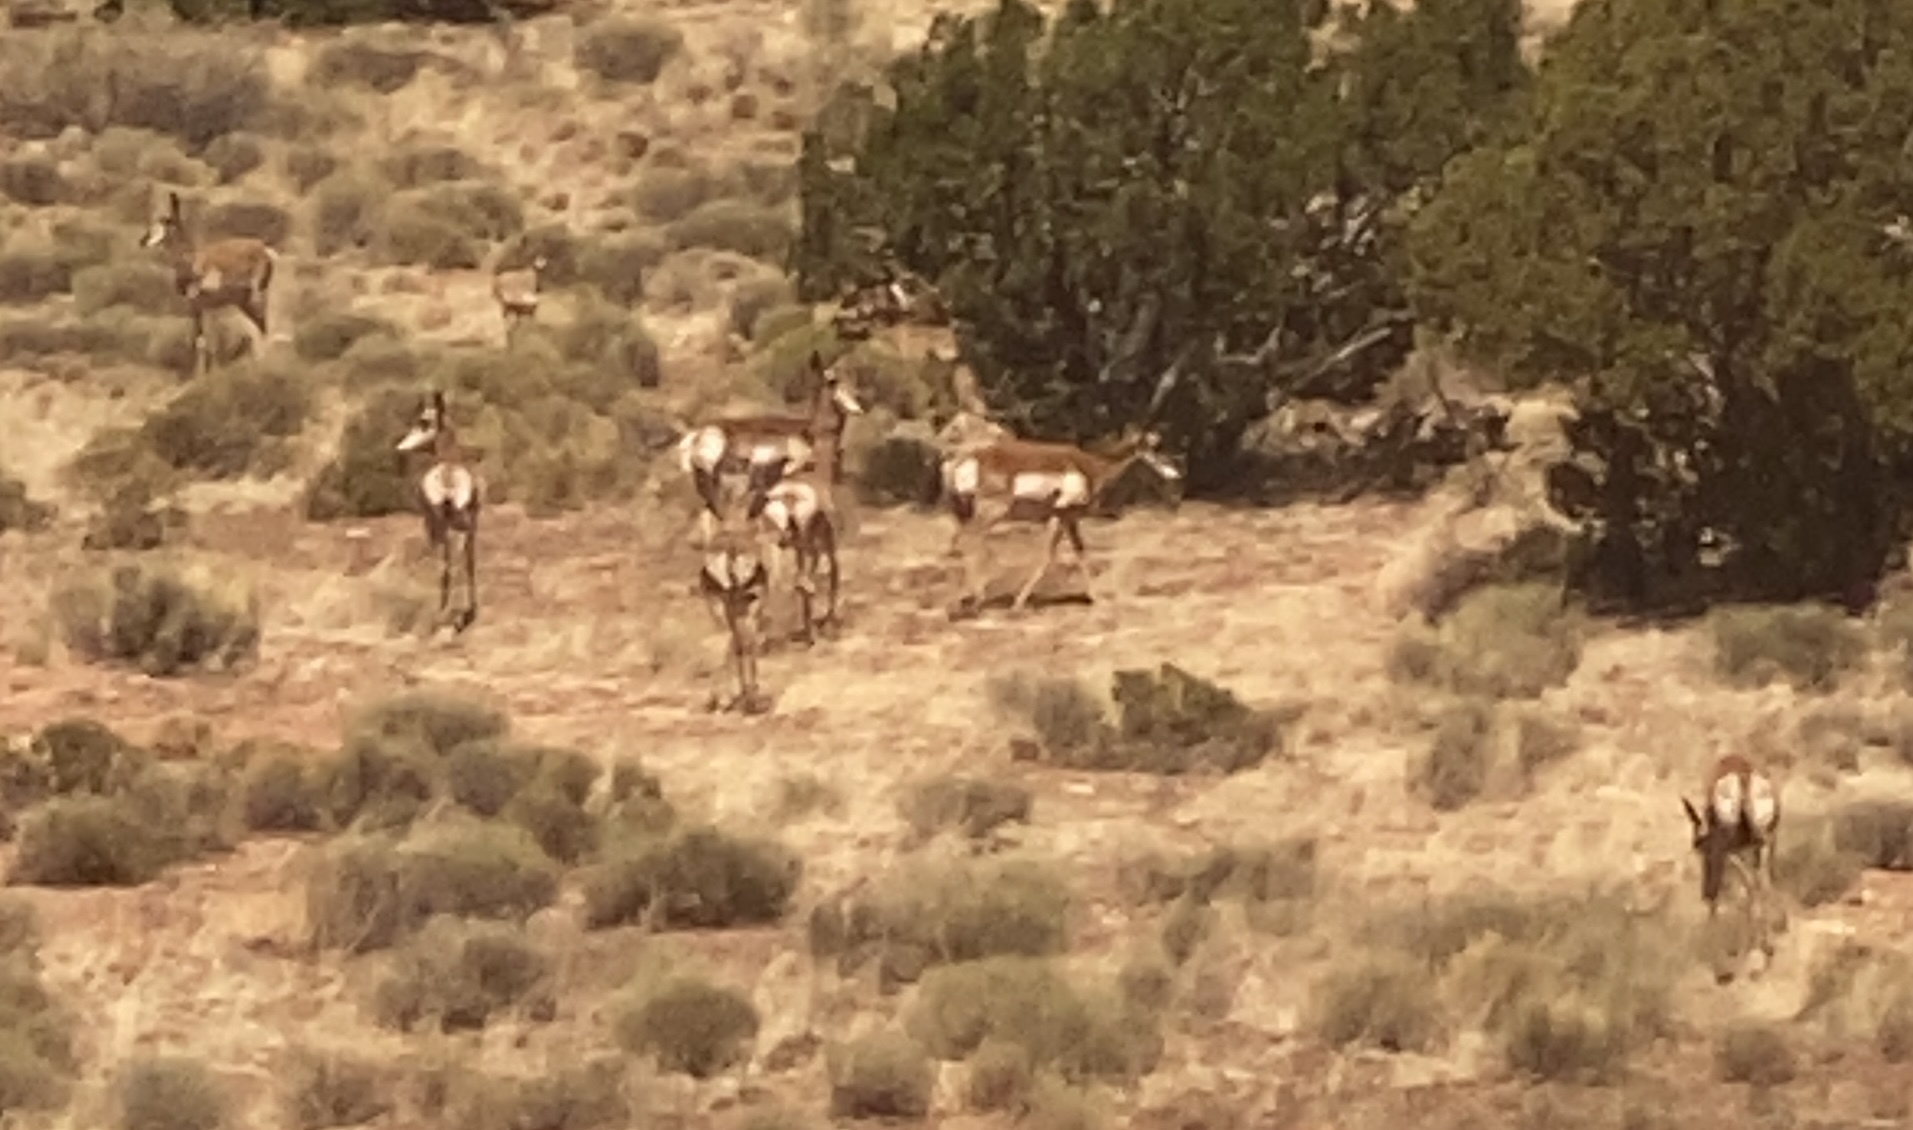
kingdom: Animalia
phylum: Chordata
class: Mammalia
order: Artiodactyla
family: Antilocapridae
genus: Antilocapra
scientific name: Antilocapra americana
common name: Pronghorn
